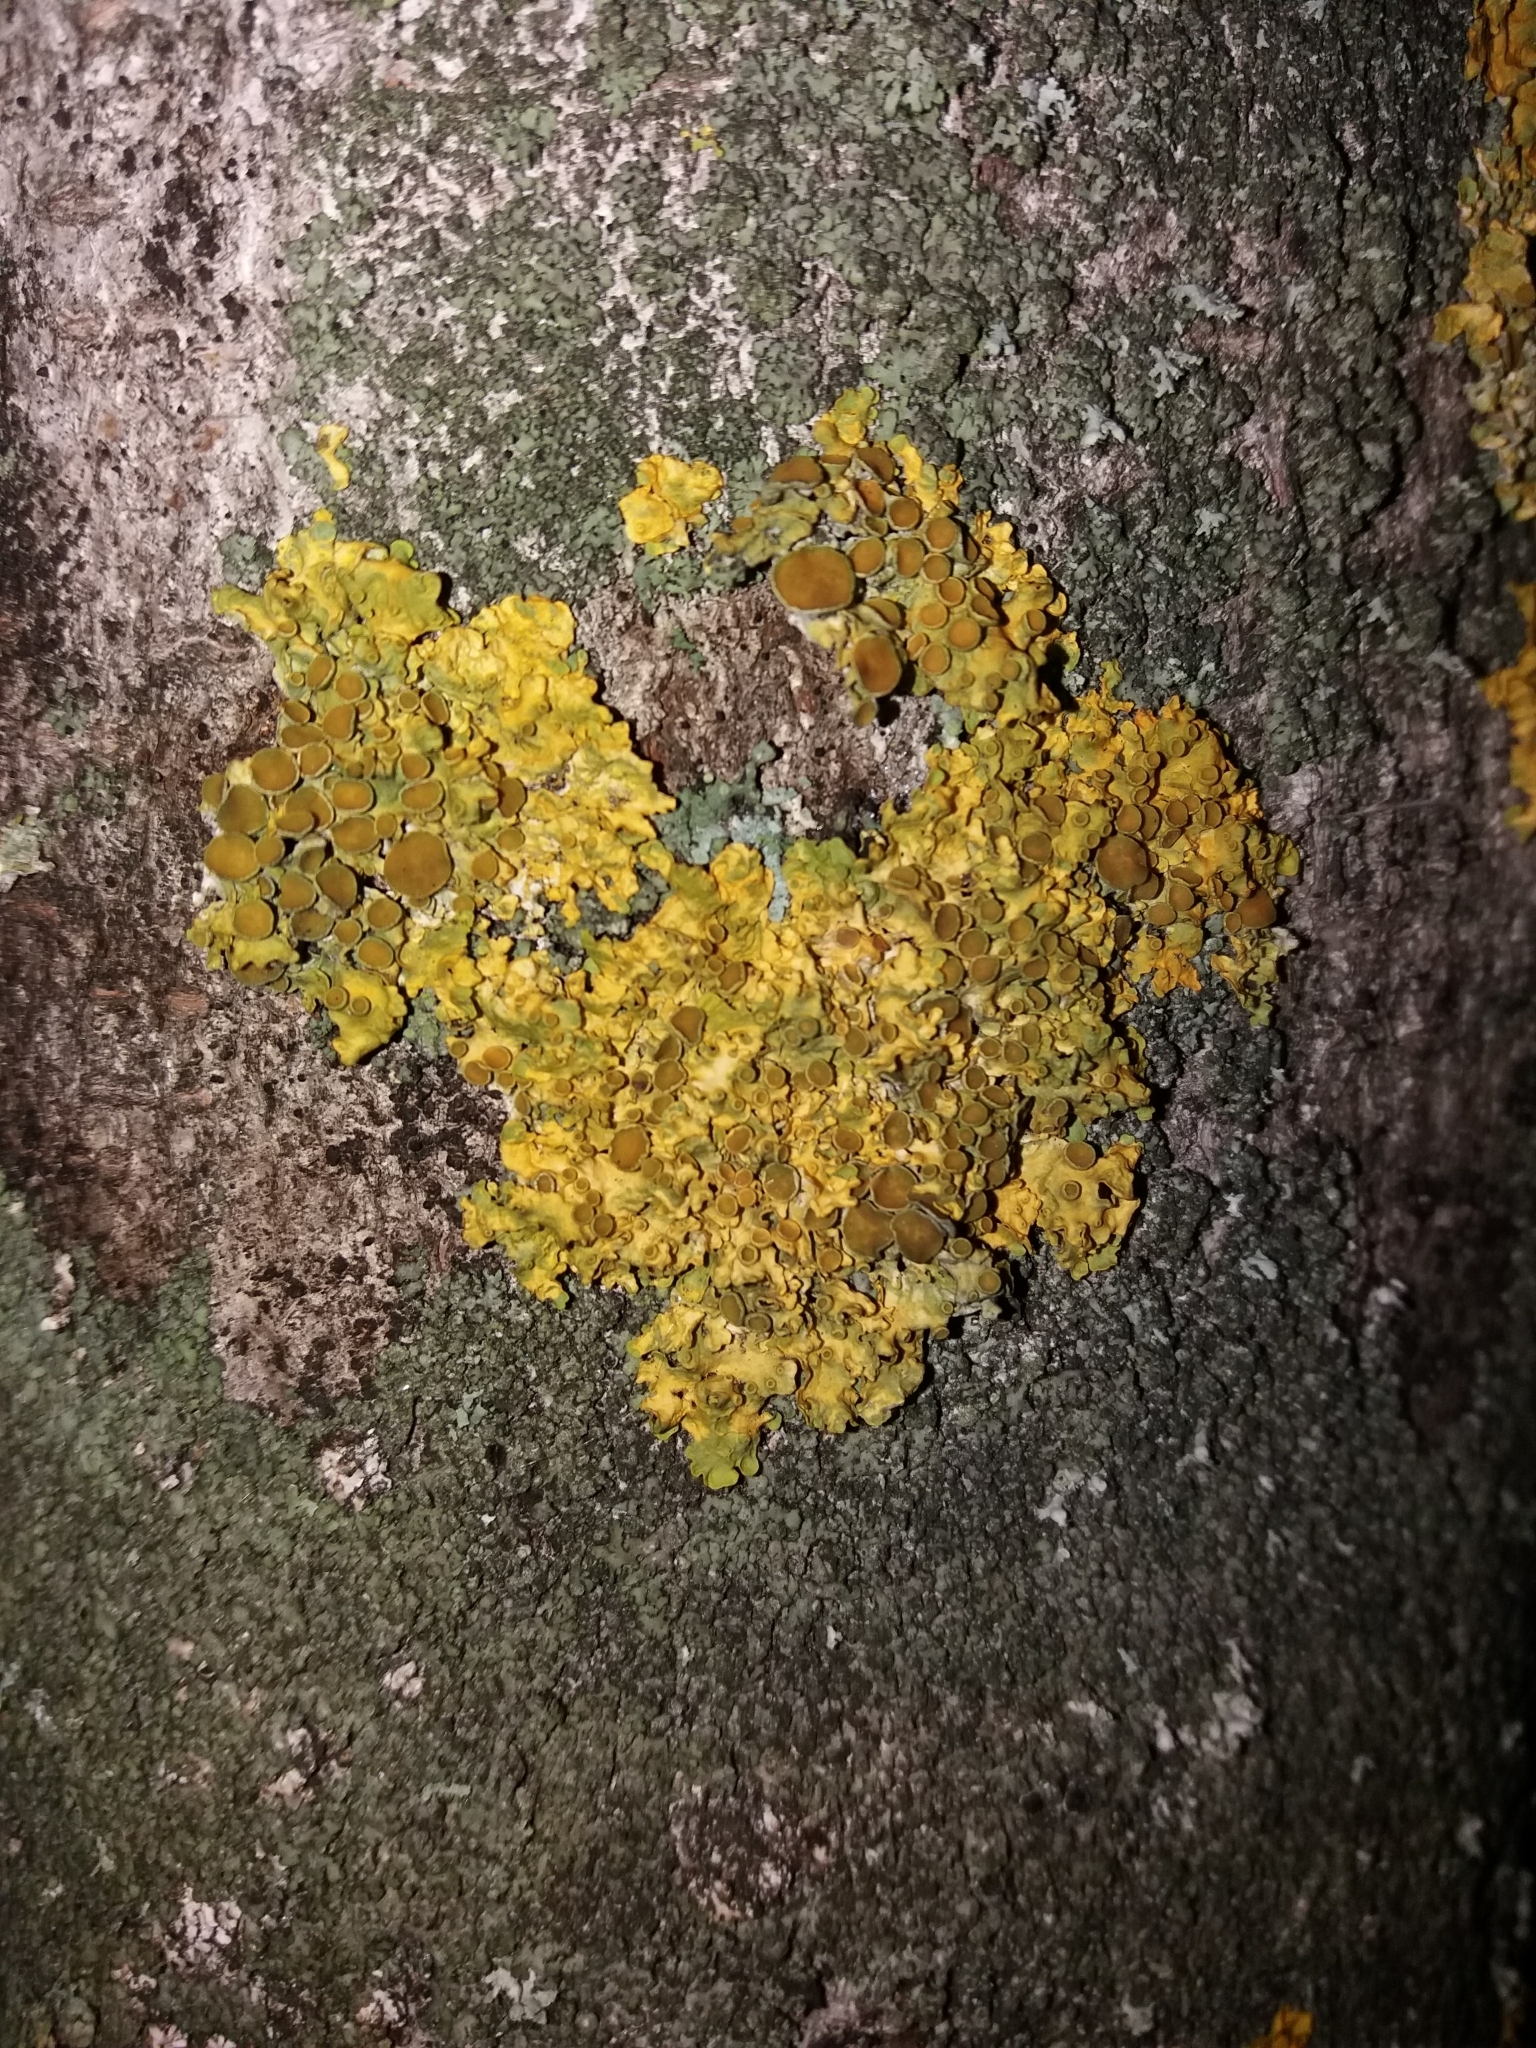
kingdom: Fungi
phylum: Ascomycota
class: Lecanoromycetes
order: Teloschistales
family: Teloschistaceae
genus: Xanthoria
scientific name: Xanthoria parietina
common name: Common orange lichen
